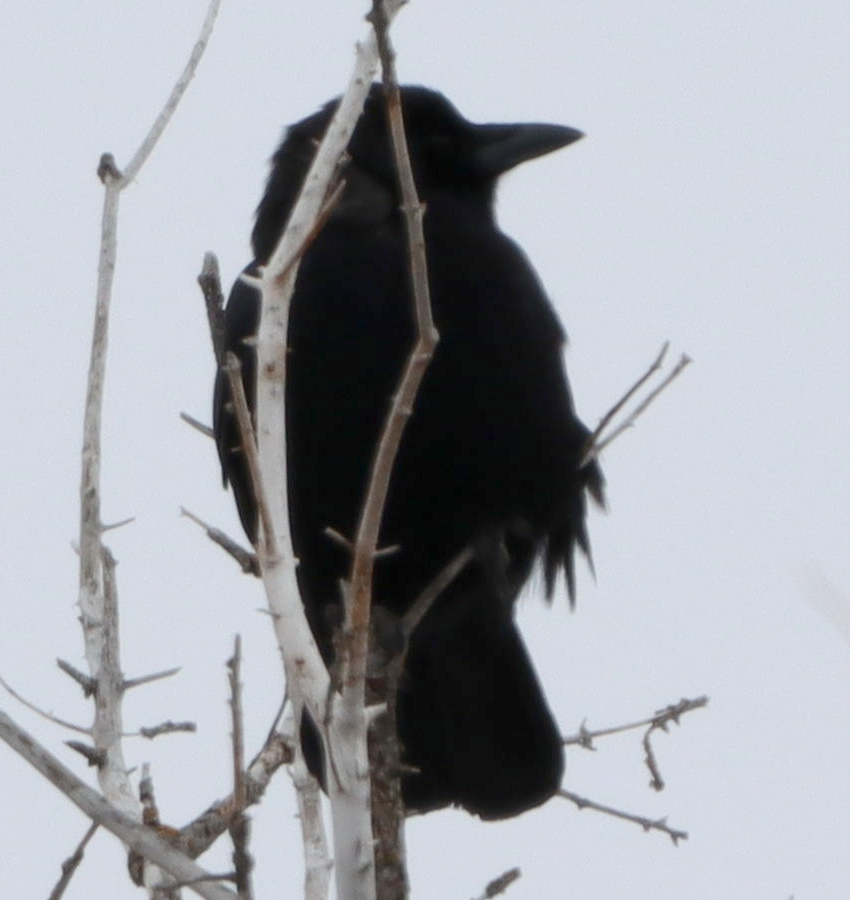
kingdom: Animalia
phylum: Chordata
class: Aves
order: Passeriformes
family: Corvidae
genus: Corvus
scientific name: Corvus brachyrhynchos
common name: American crow
